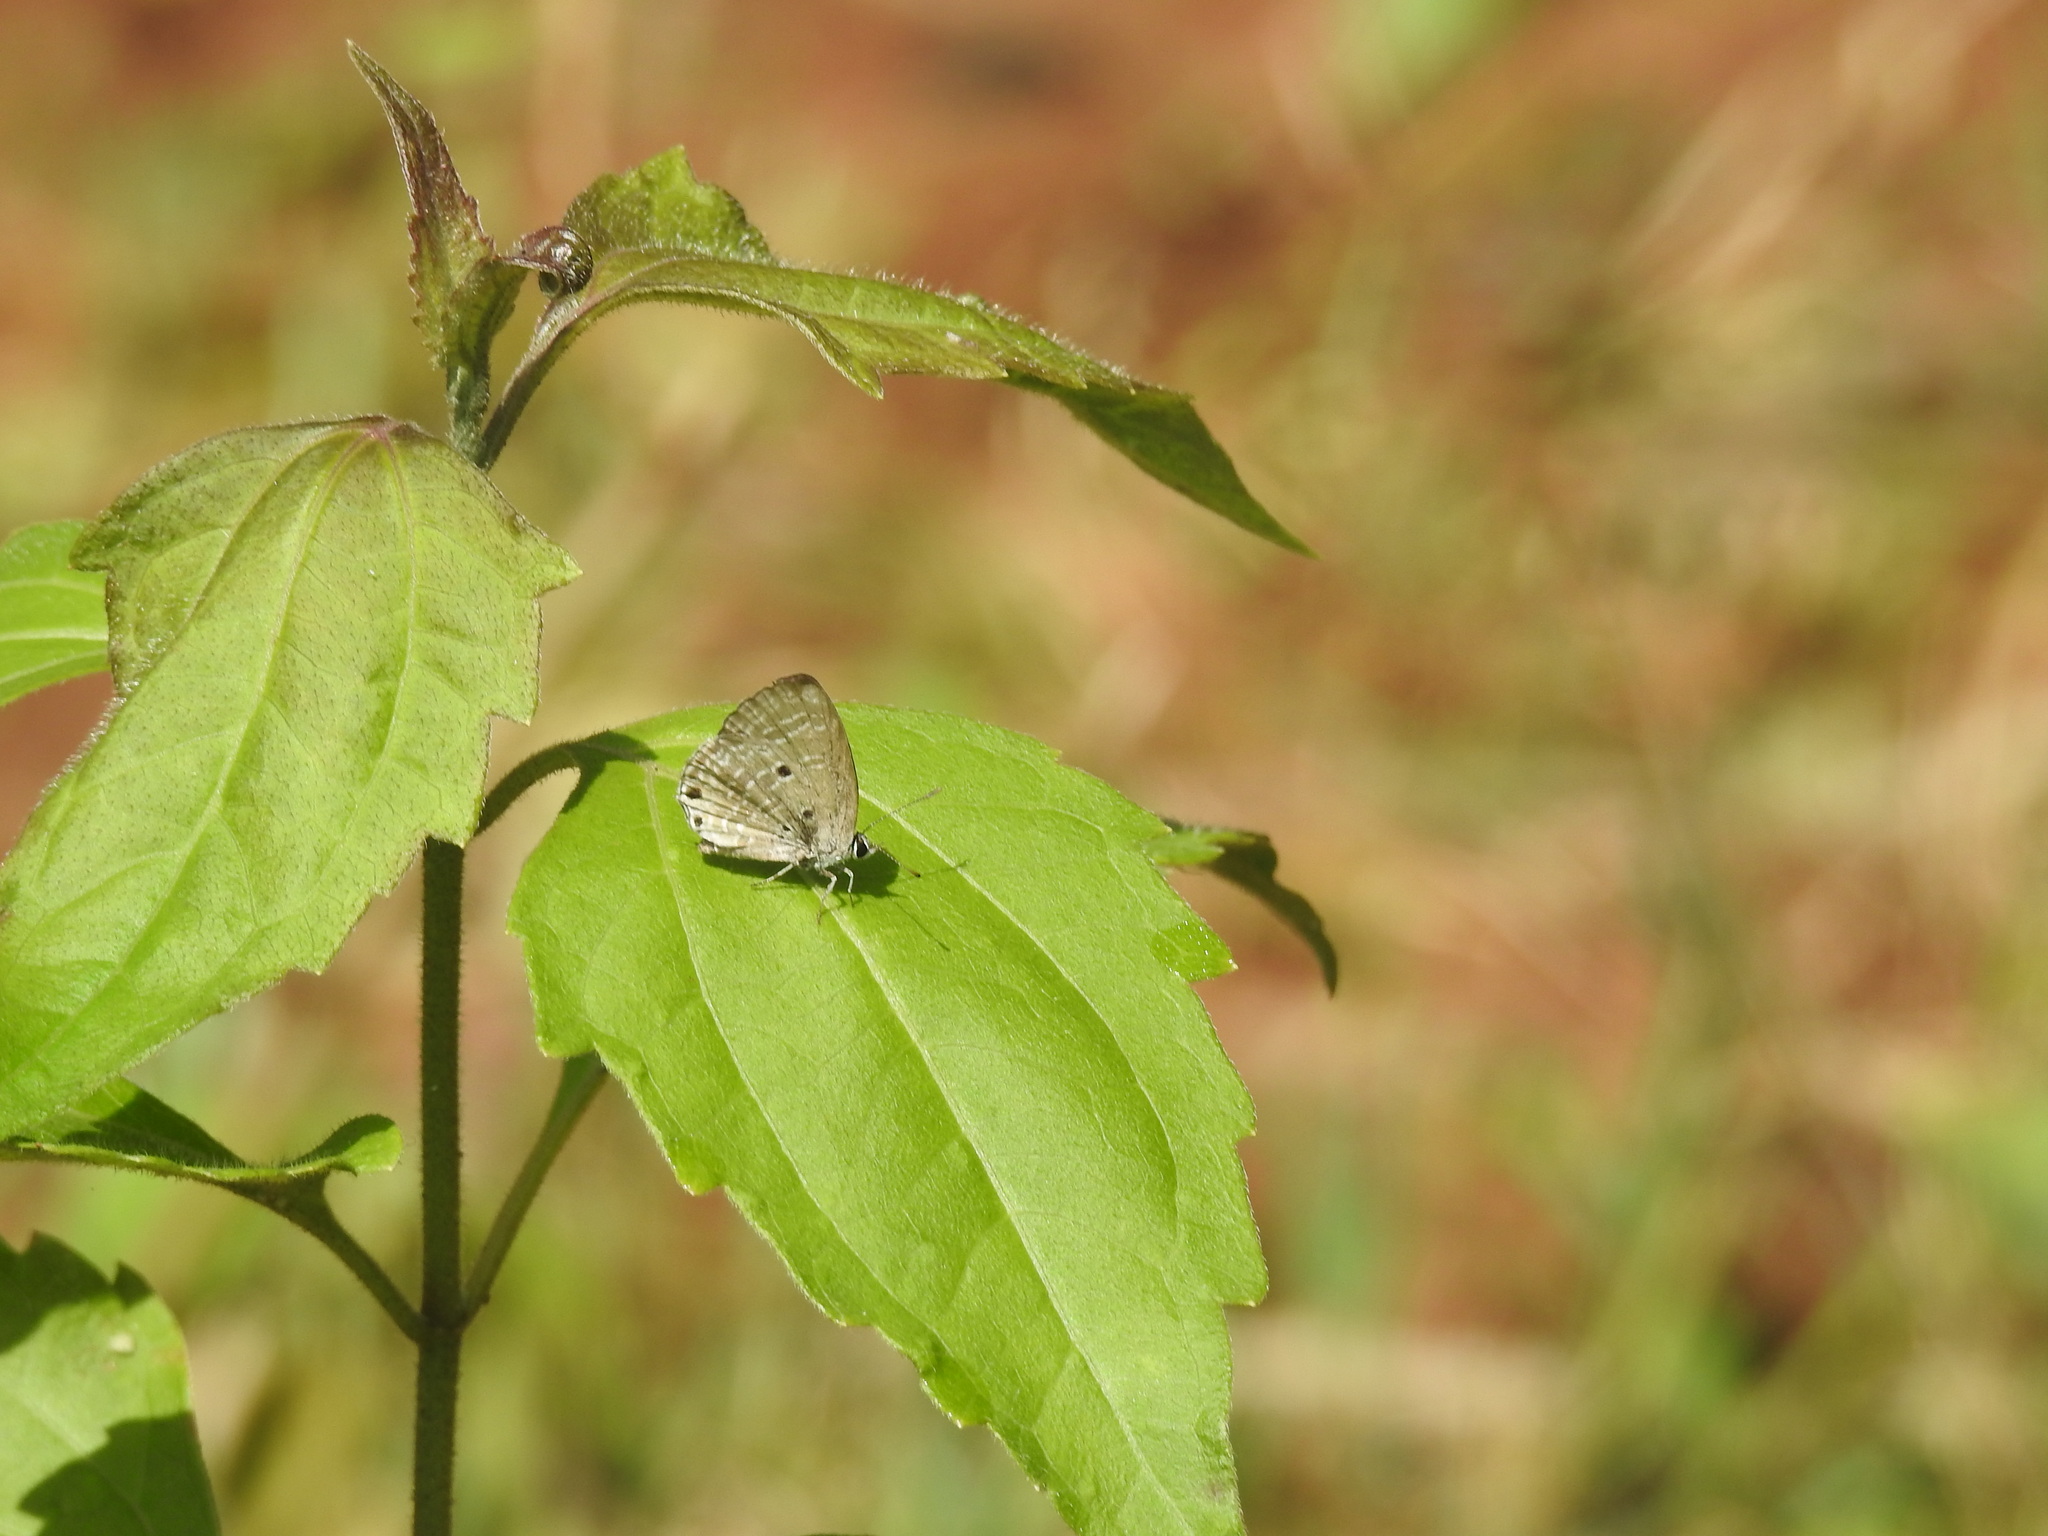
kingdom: Animalia
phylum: Arthropoda
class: Insecta
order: Lepidoptera
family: Lycaenidae
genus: Chilades
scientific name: Chilades laius
